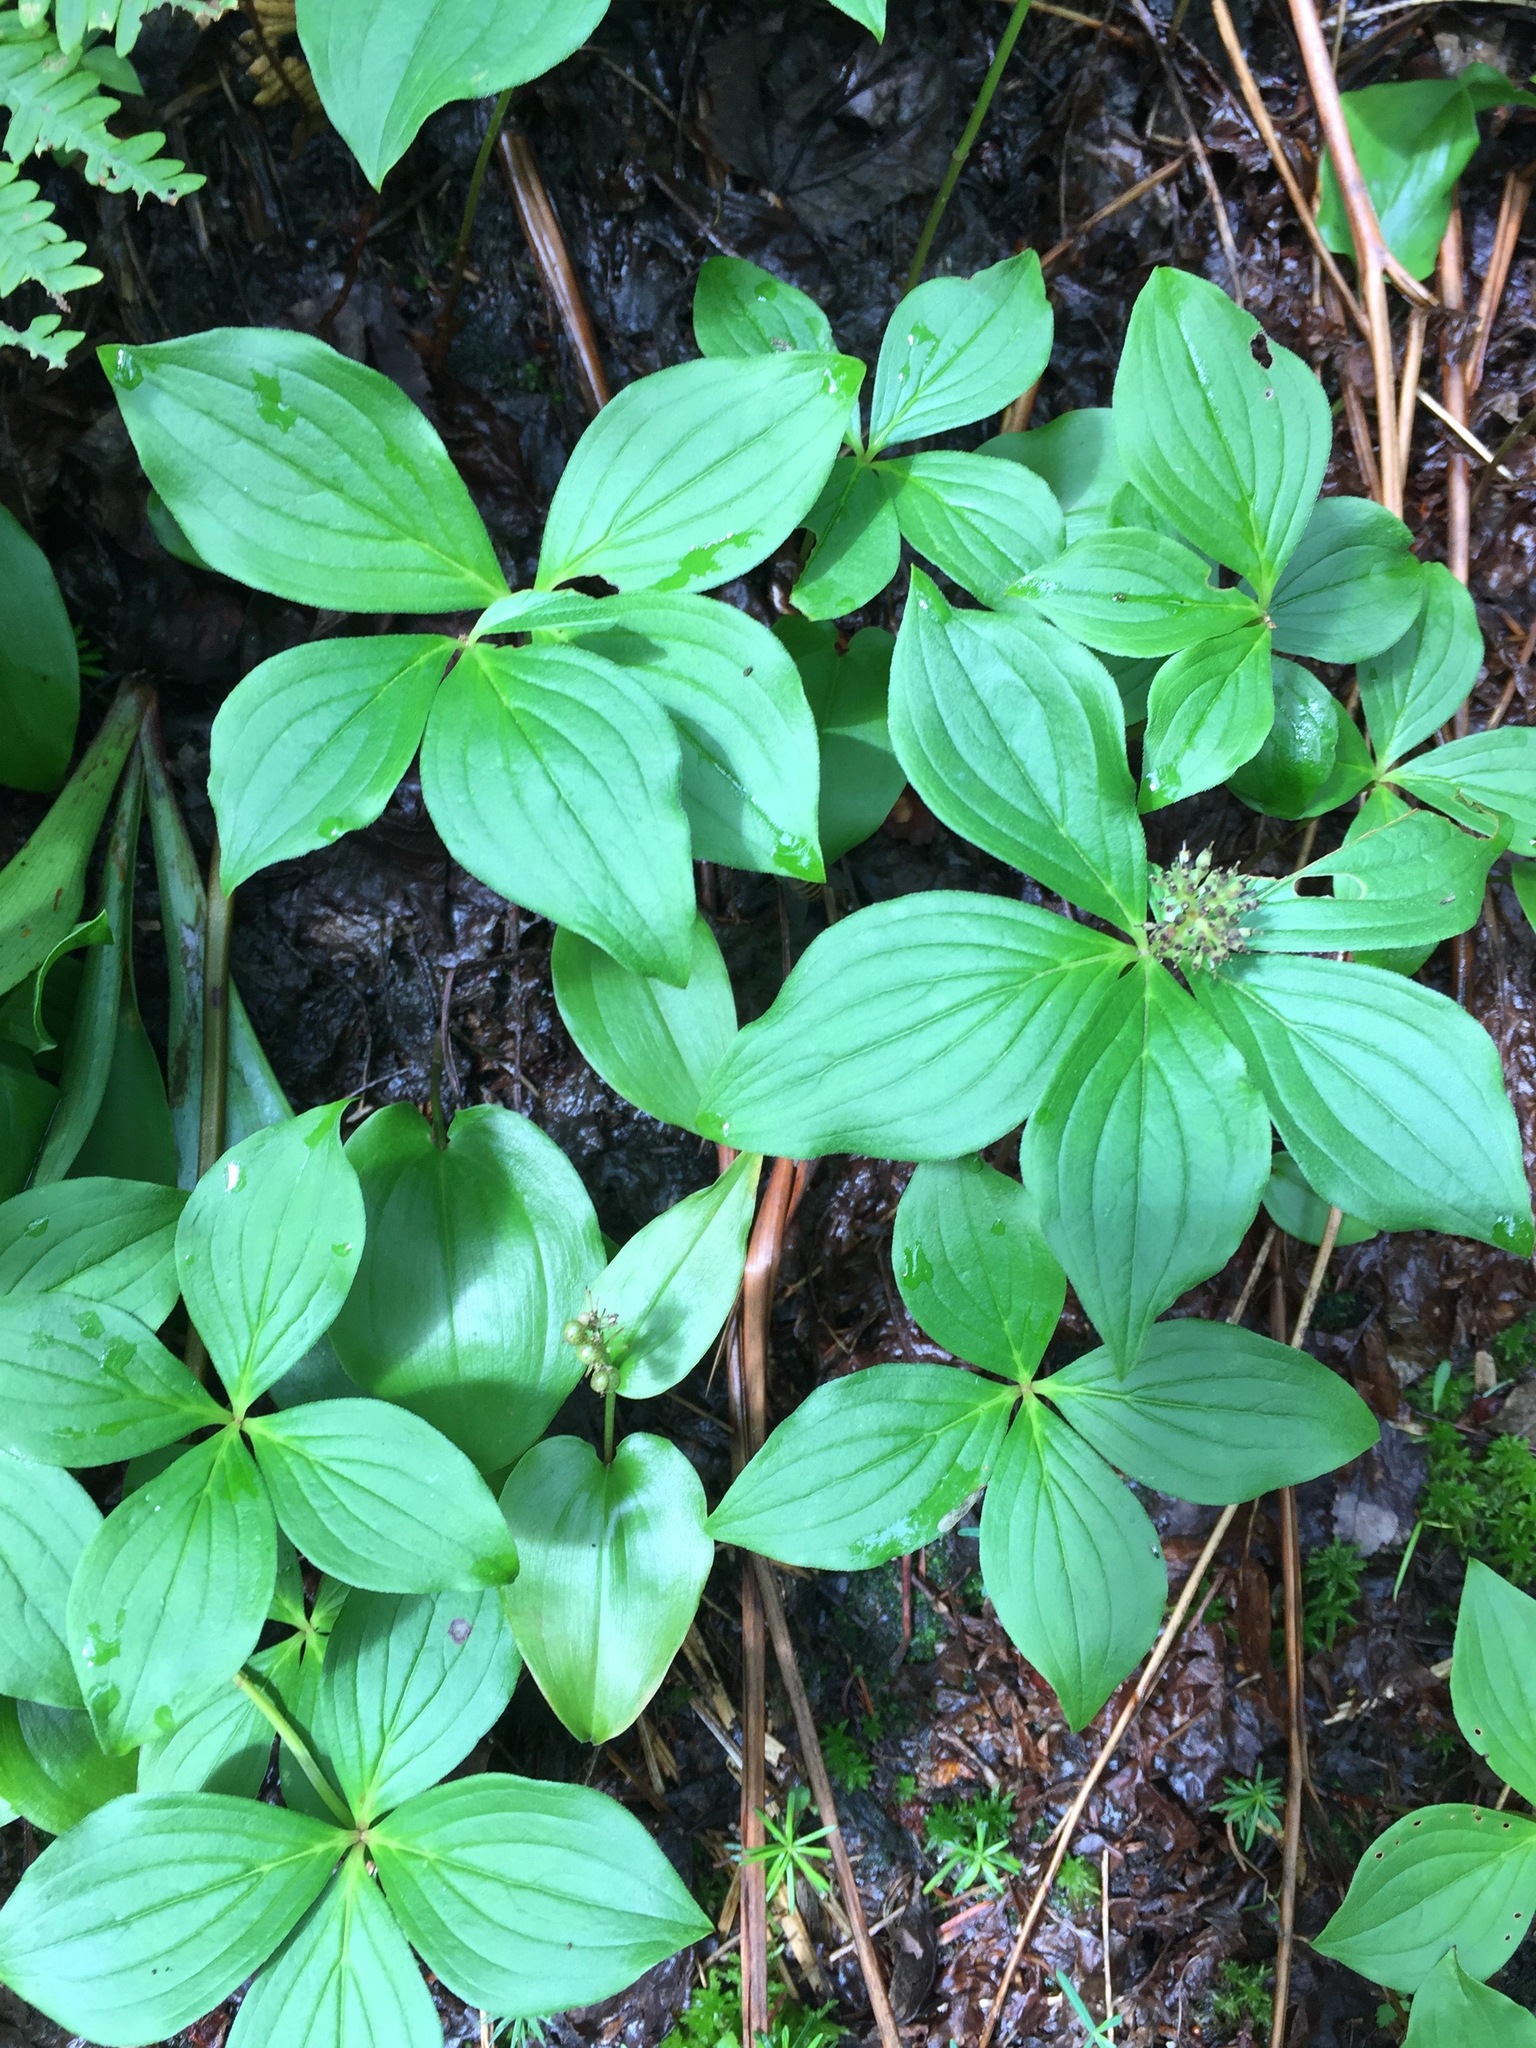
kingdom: Plantae
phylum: Tracheophyta
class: Magnoliopsida
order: Cornales
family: Cornaceae
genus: Cornus
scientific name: Cornus canadensis
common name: Creeping dogwood
